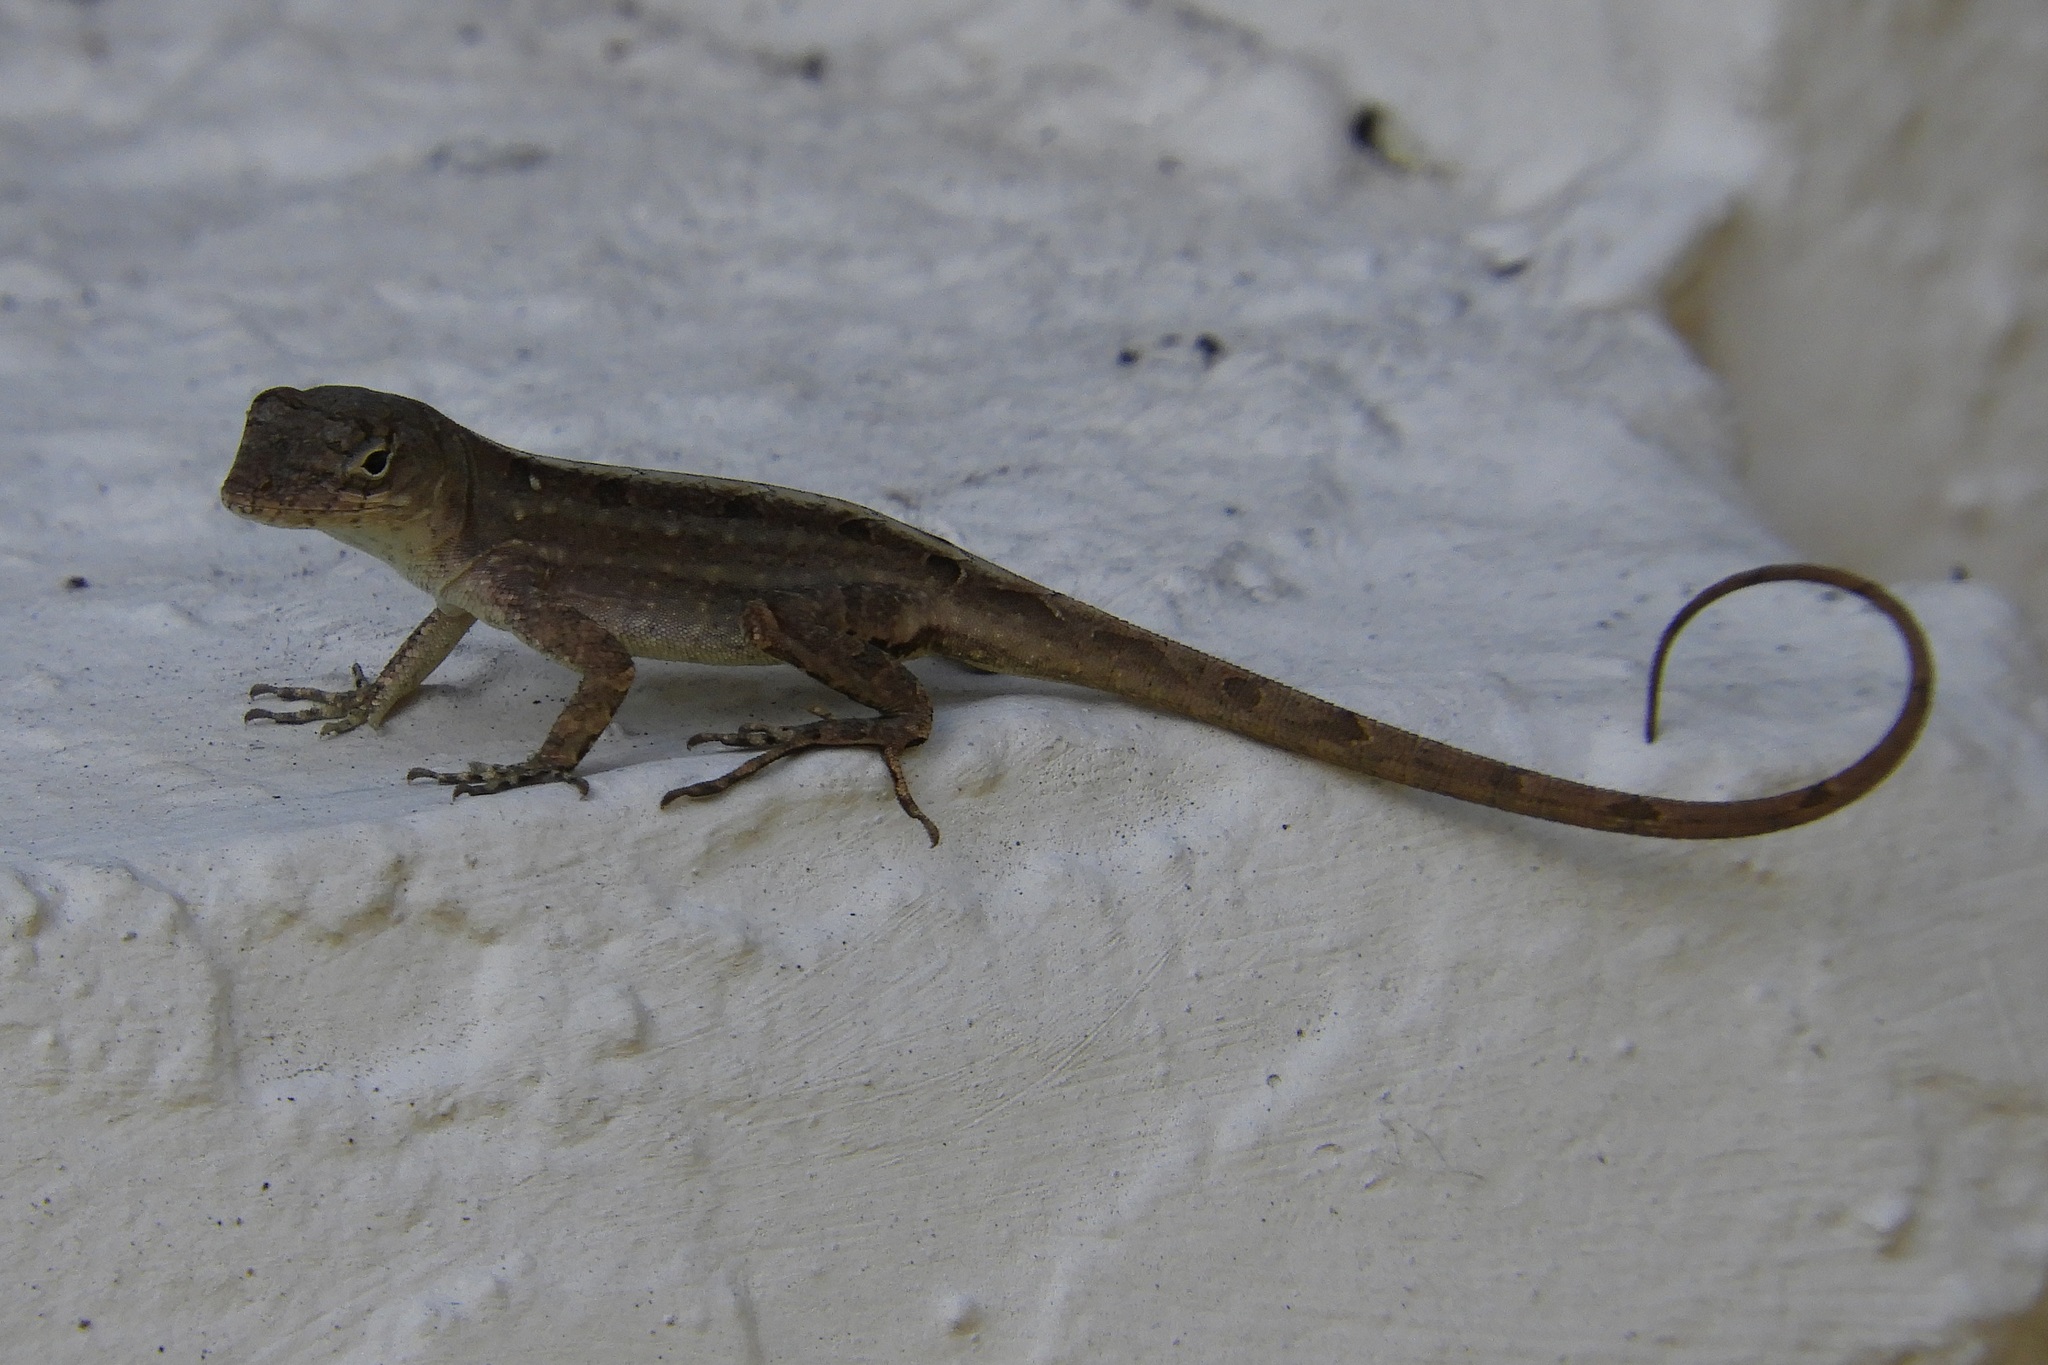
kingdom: Animalia
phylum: Chordata
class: Squamata
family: Dactyloidae
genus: Anolis
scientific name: Anolis sagrei
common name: Brown anole
